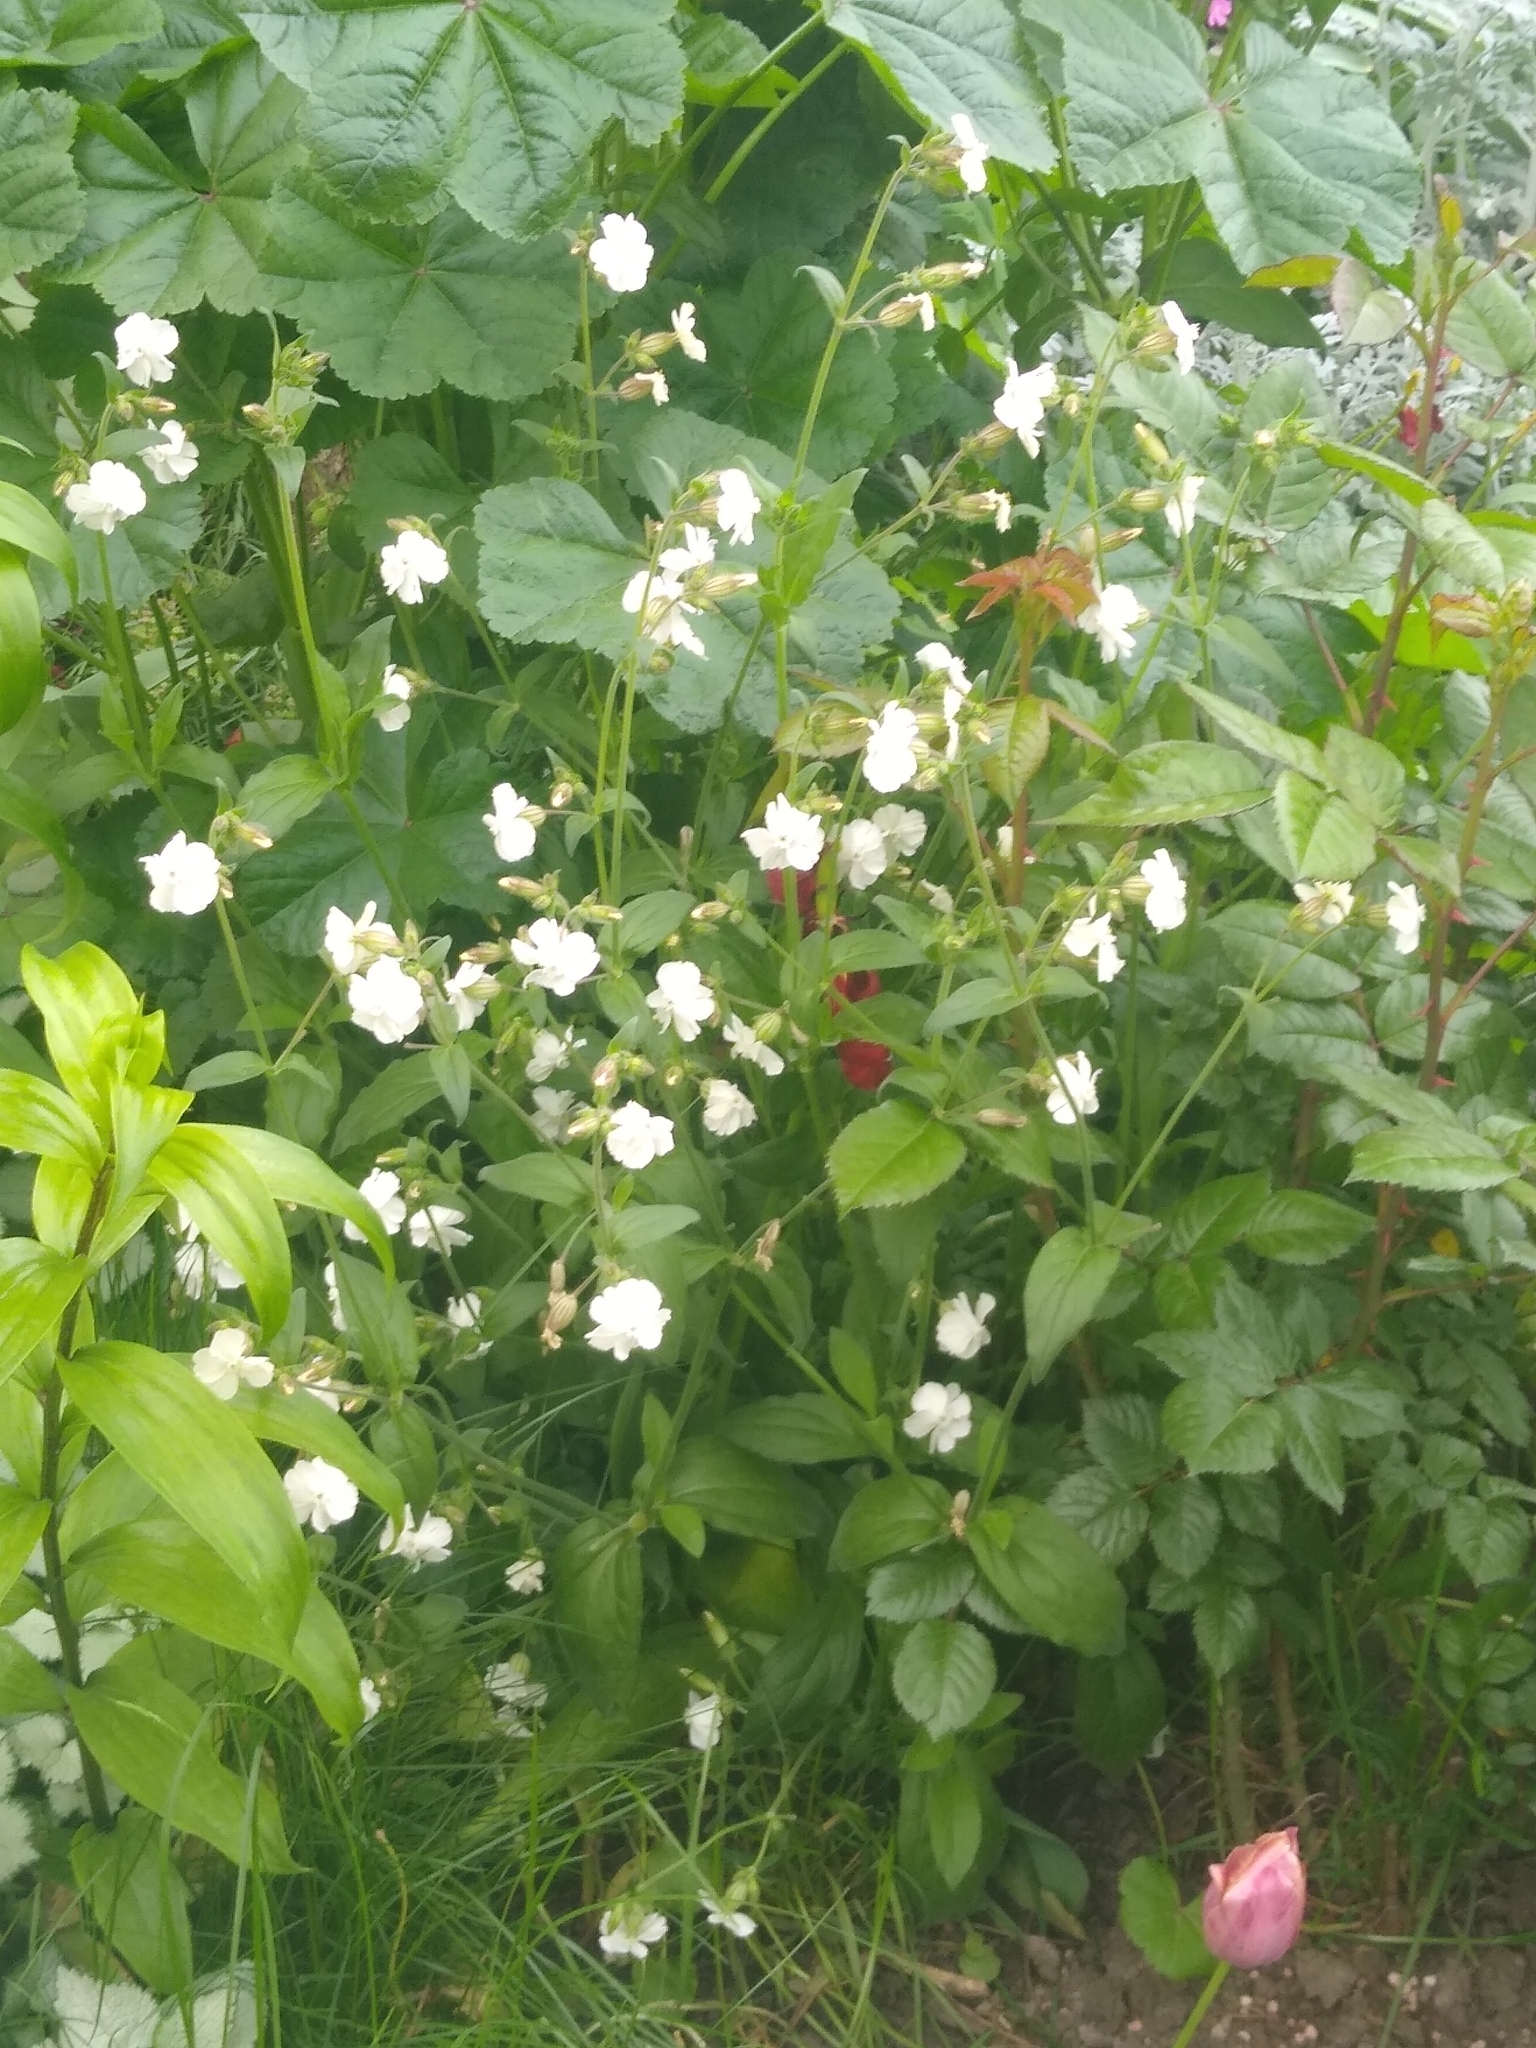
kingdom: Plantae
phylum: Tracheophyta
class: Magnoliopsida
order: Caryophyllales
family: Caryophyllaceae
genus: Silene
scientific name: Silene latifolia
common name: White campion
